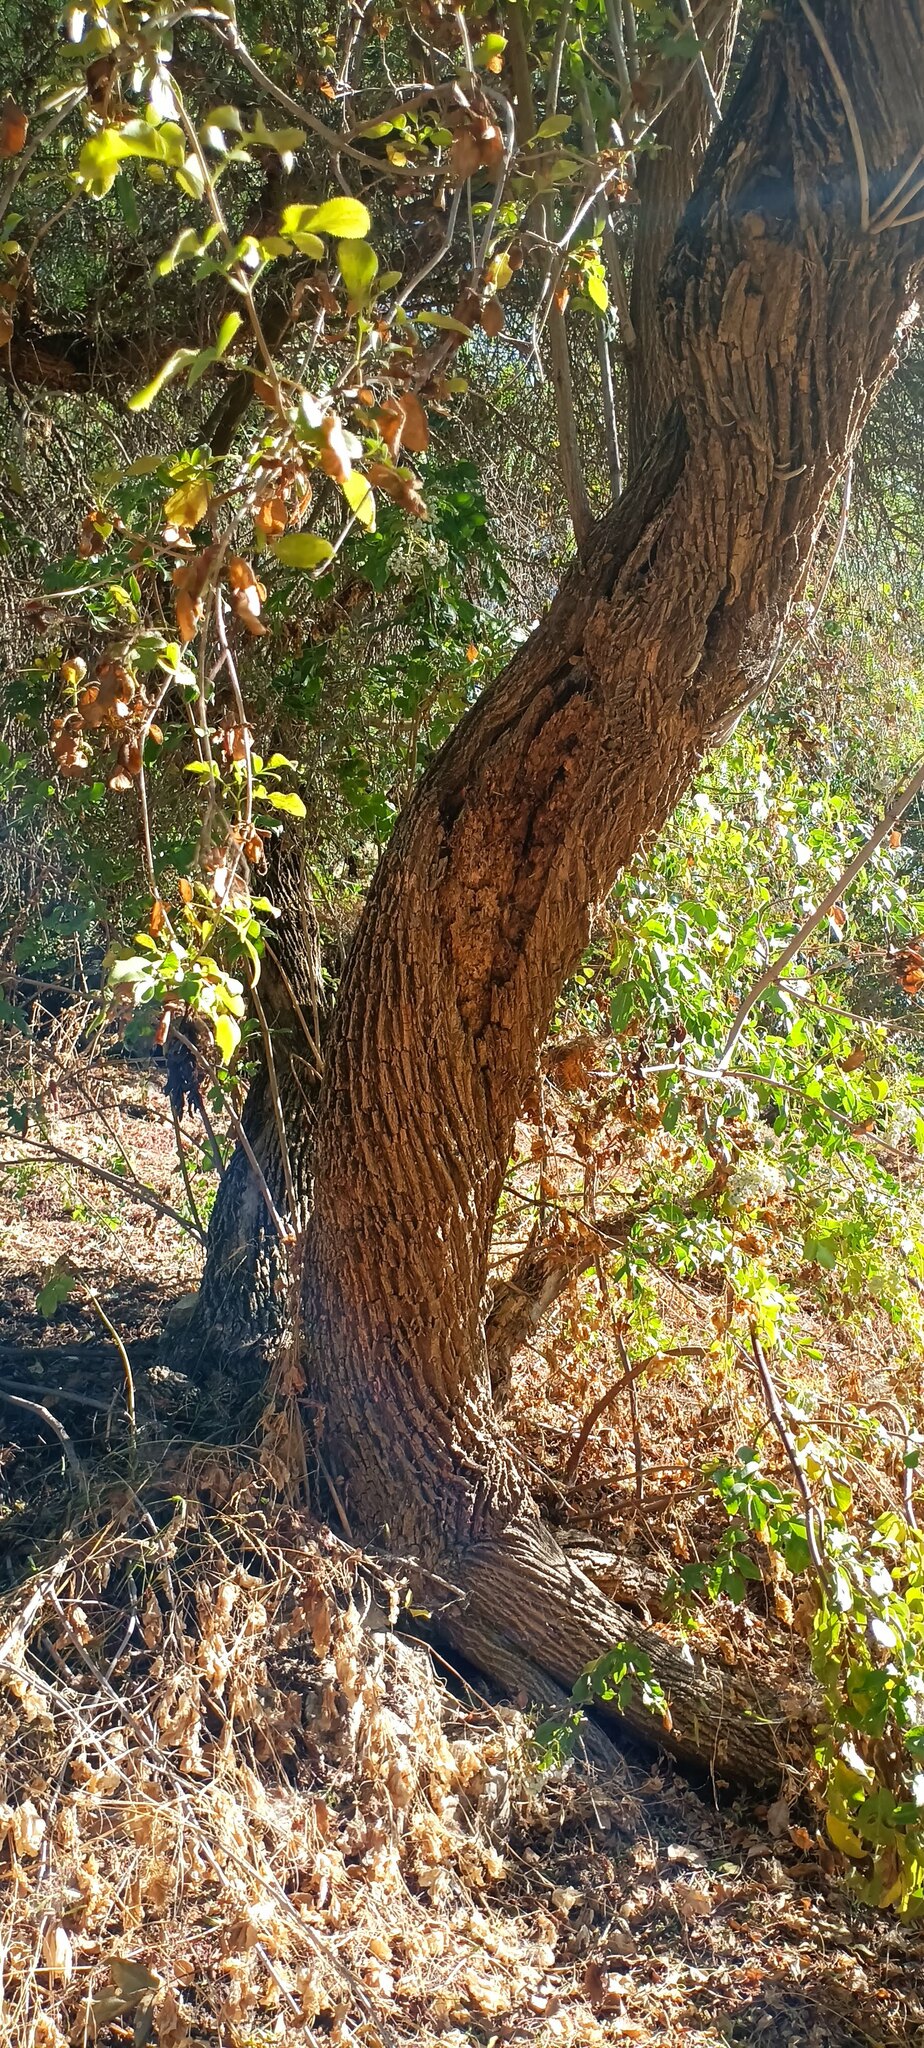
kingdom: Plantae
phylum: Tracheophyta
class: Magnoliopsida
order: Dipsacales
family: Viburnaceae
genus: Sambucus
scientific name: Sambucus cerulea
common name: Blue elder
